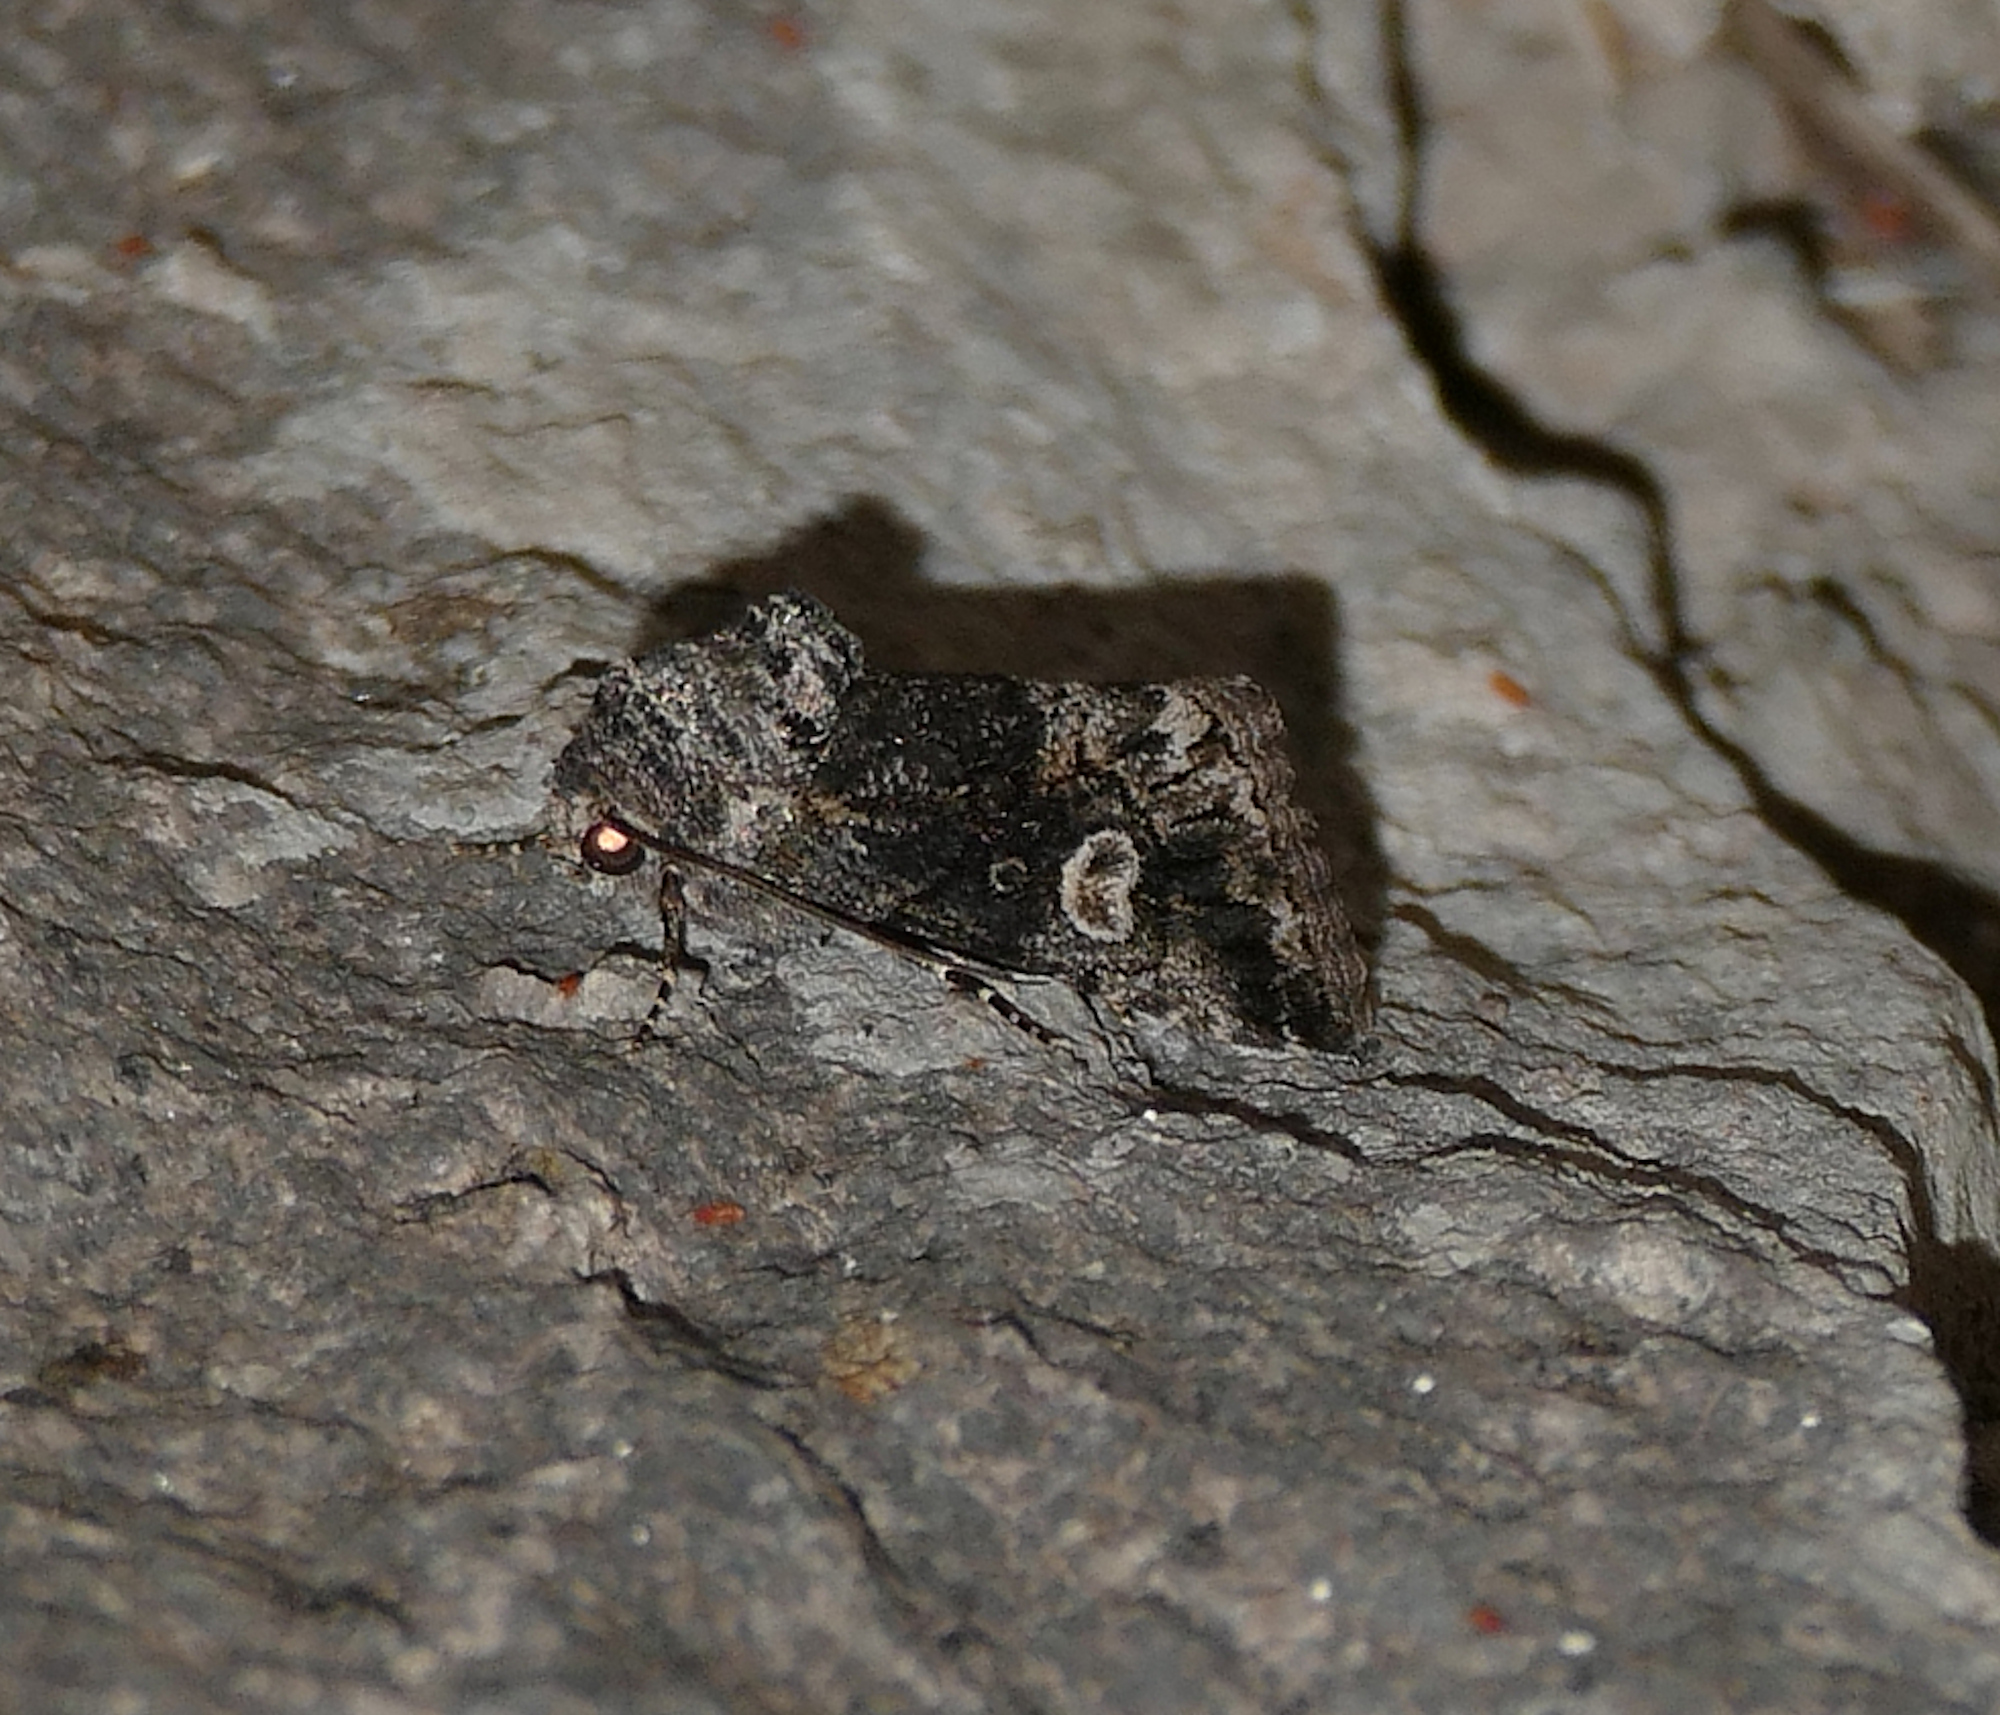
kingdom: Animalia
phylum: Arthropoda
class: Insecta
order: Lepidoptera
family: Noctuidae
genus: Copanarta
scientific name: Copanarta aurea
